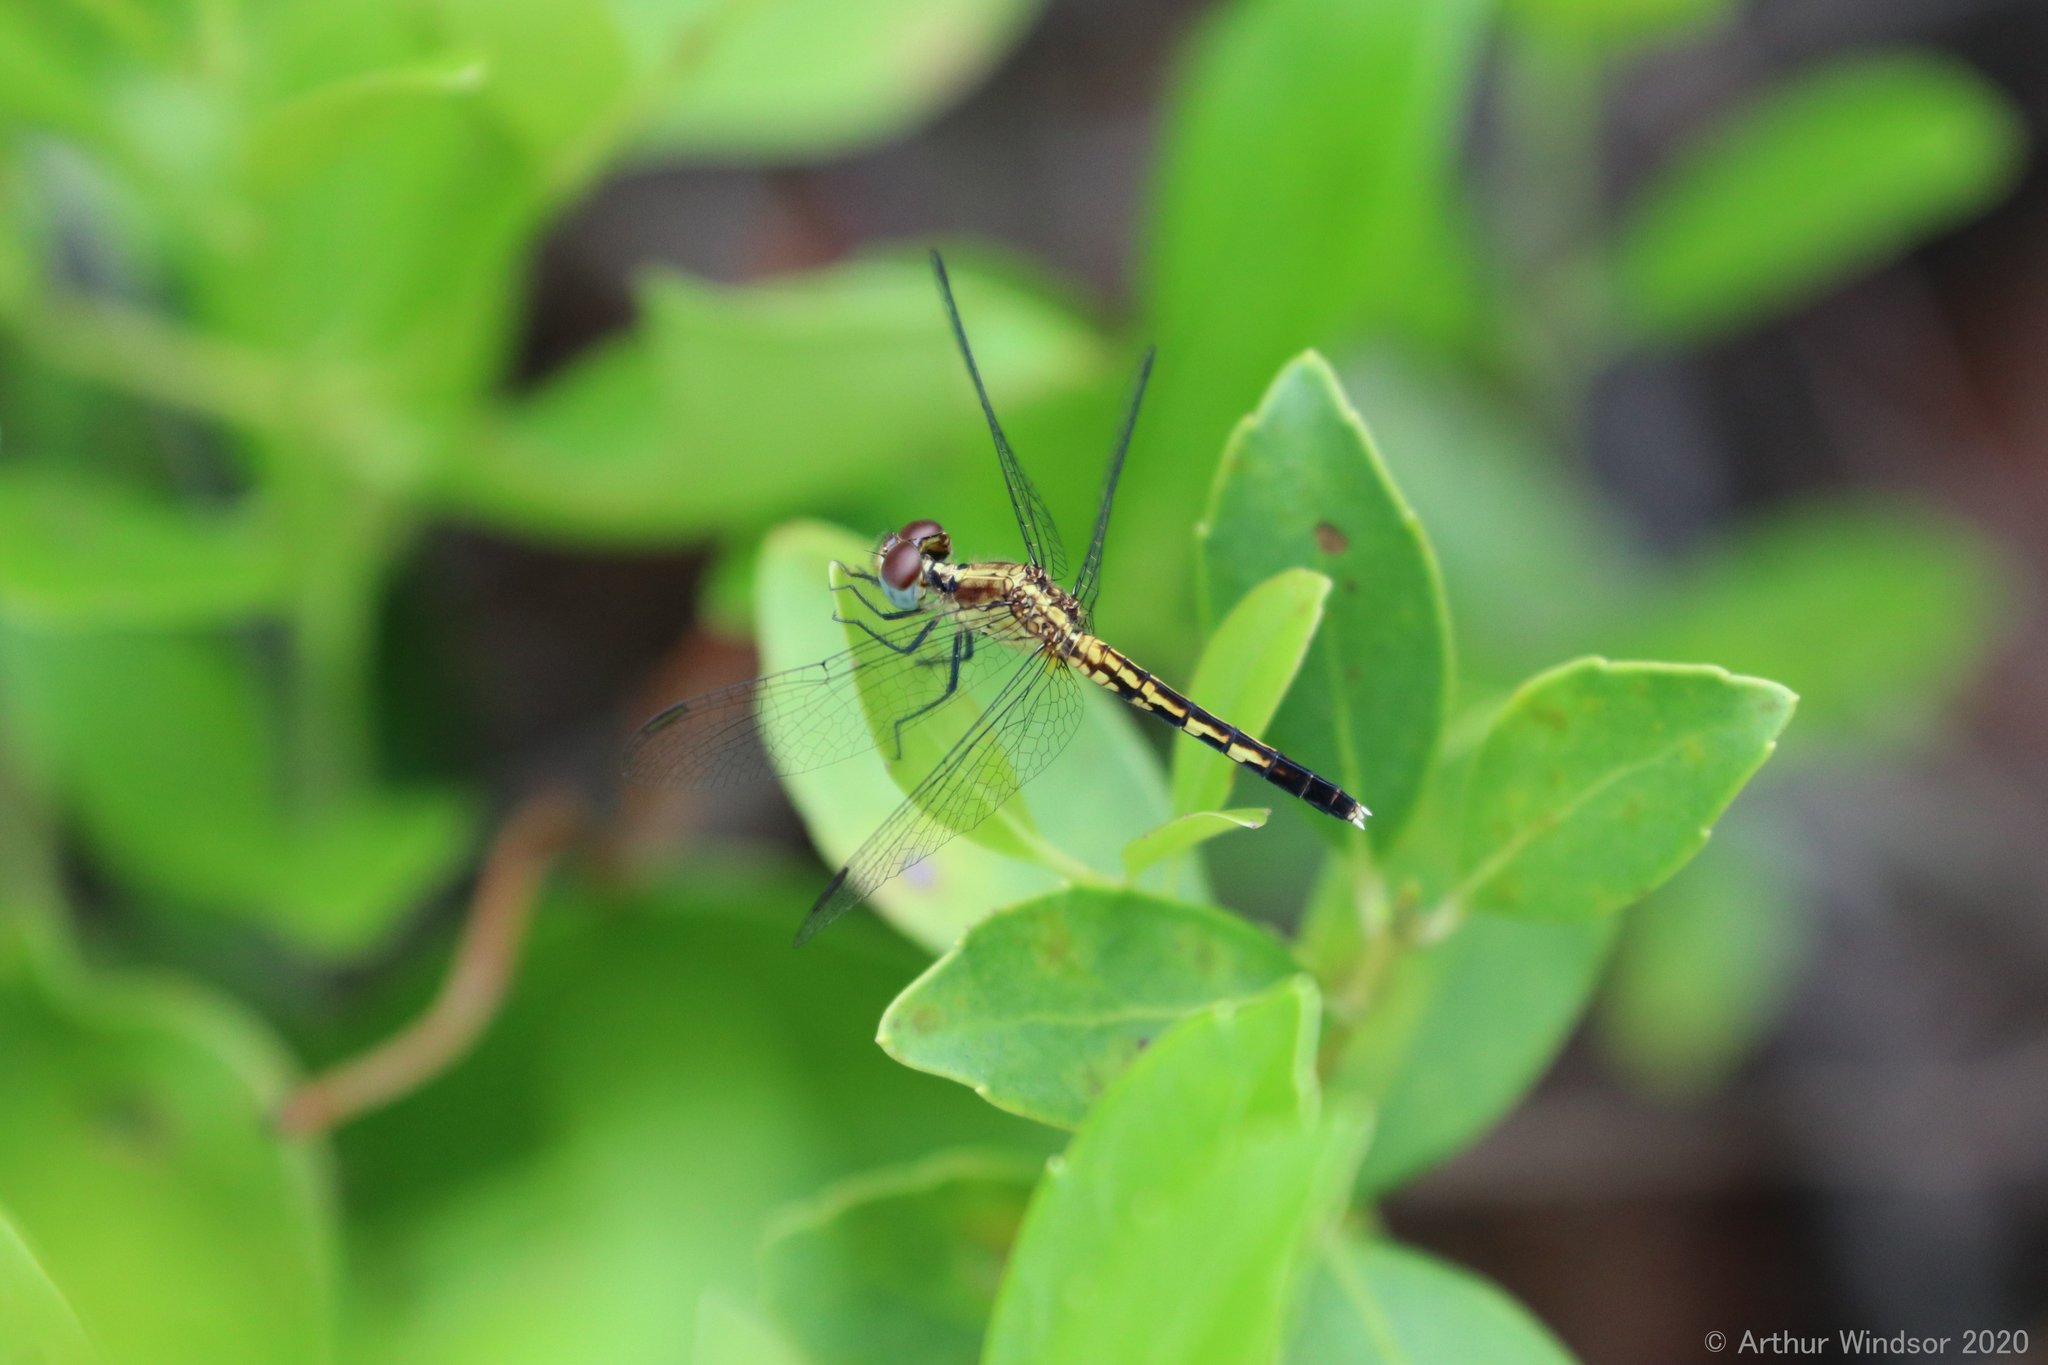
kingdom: Animalia
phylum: Arthropoda
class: Insecta
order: Odonata
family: Libellulidae
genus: Erythrodiplax
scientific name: Erythrodiplax minuscula
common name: Little blue dragonlet
